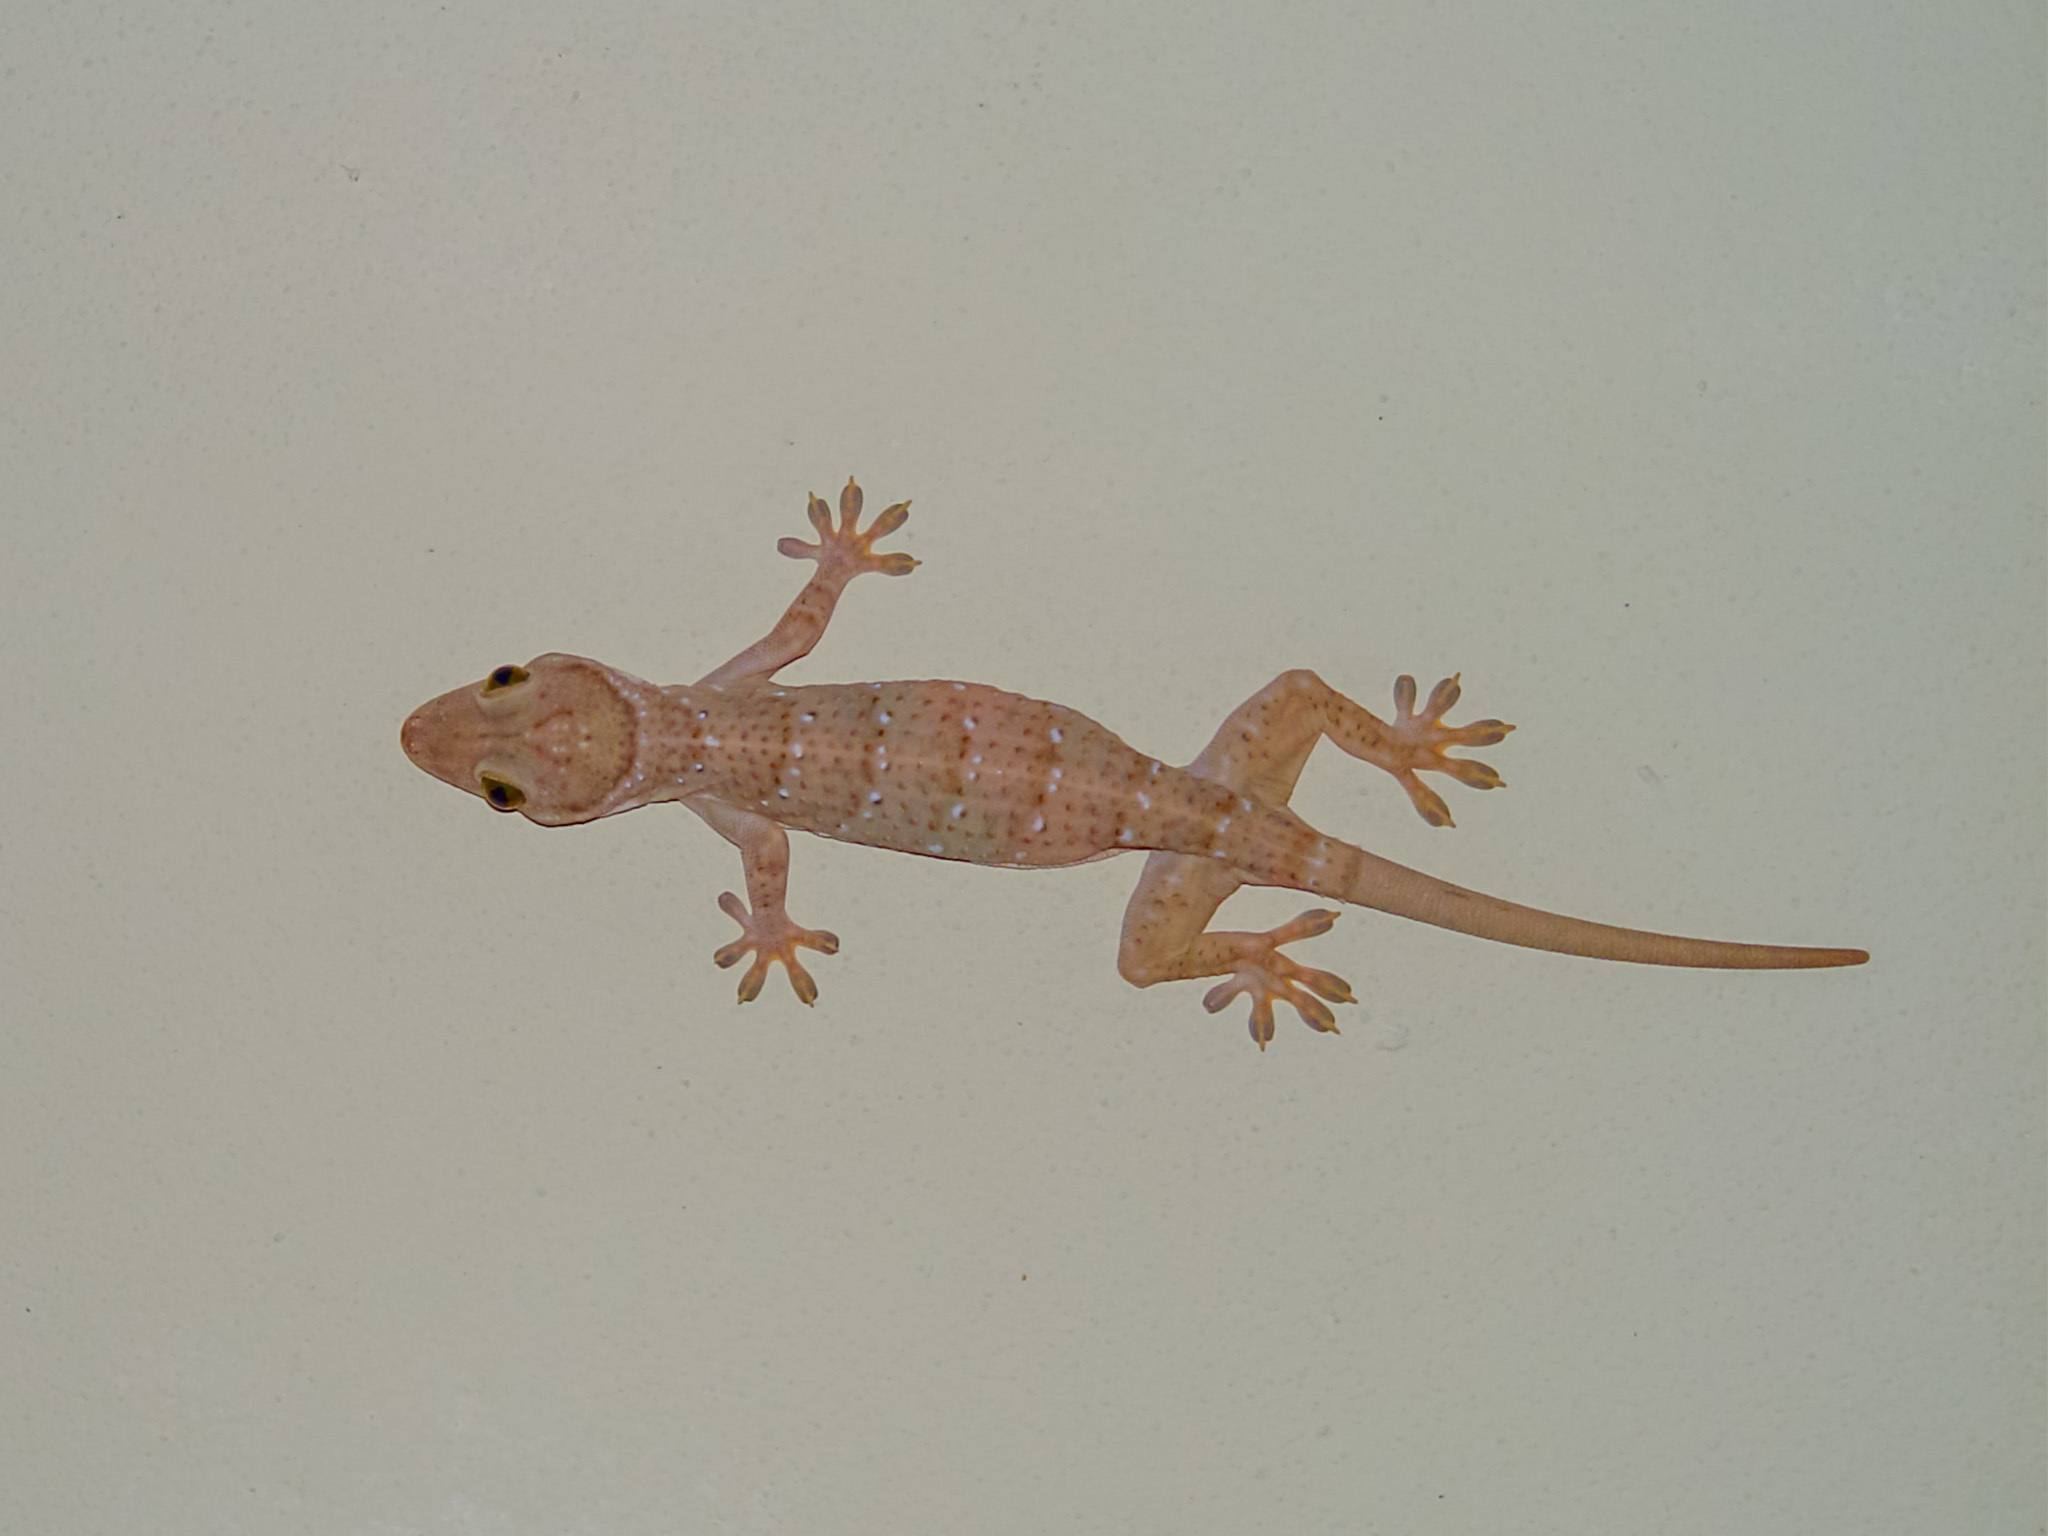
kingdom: Animalia
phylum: Chordata
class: Squamata
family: Gekkonidae
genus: Gekko
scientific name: Gekko hulk
